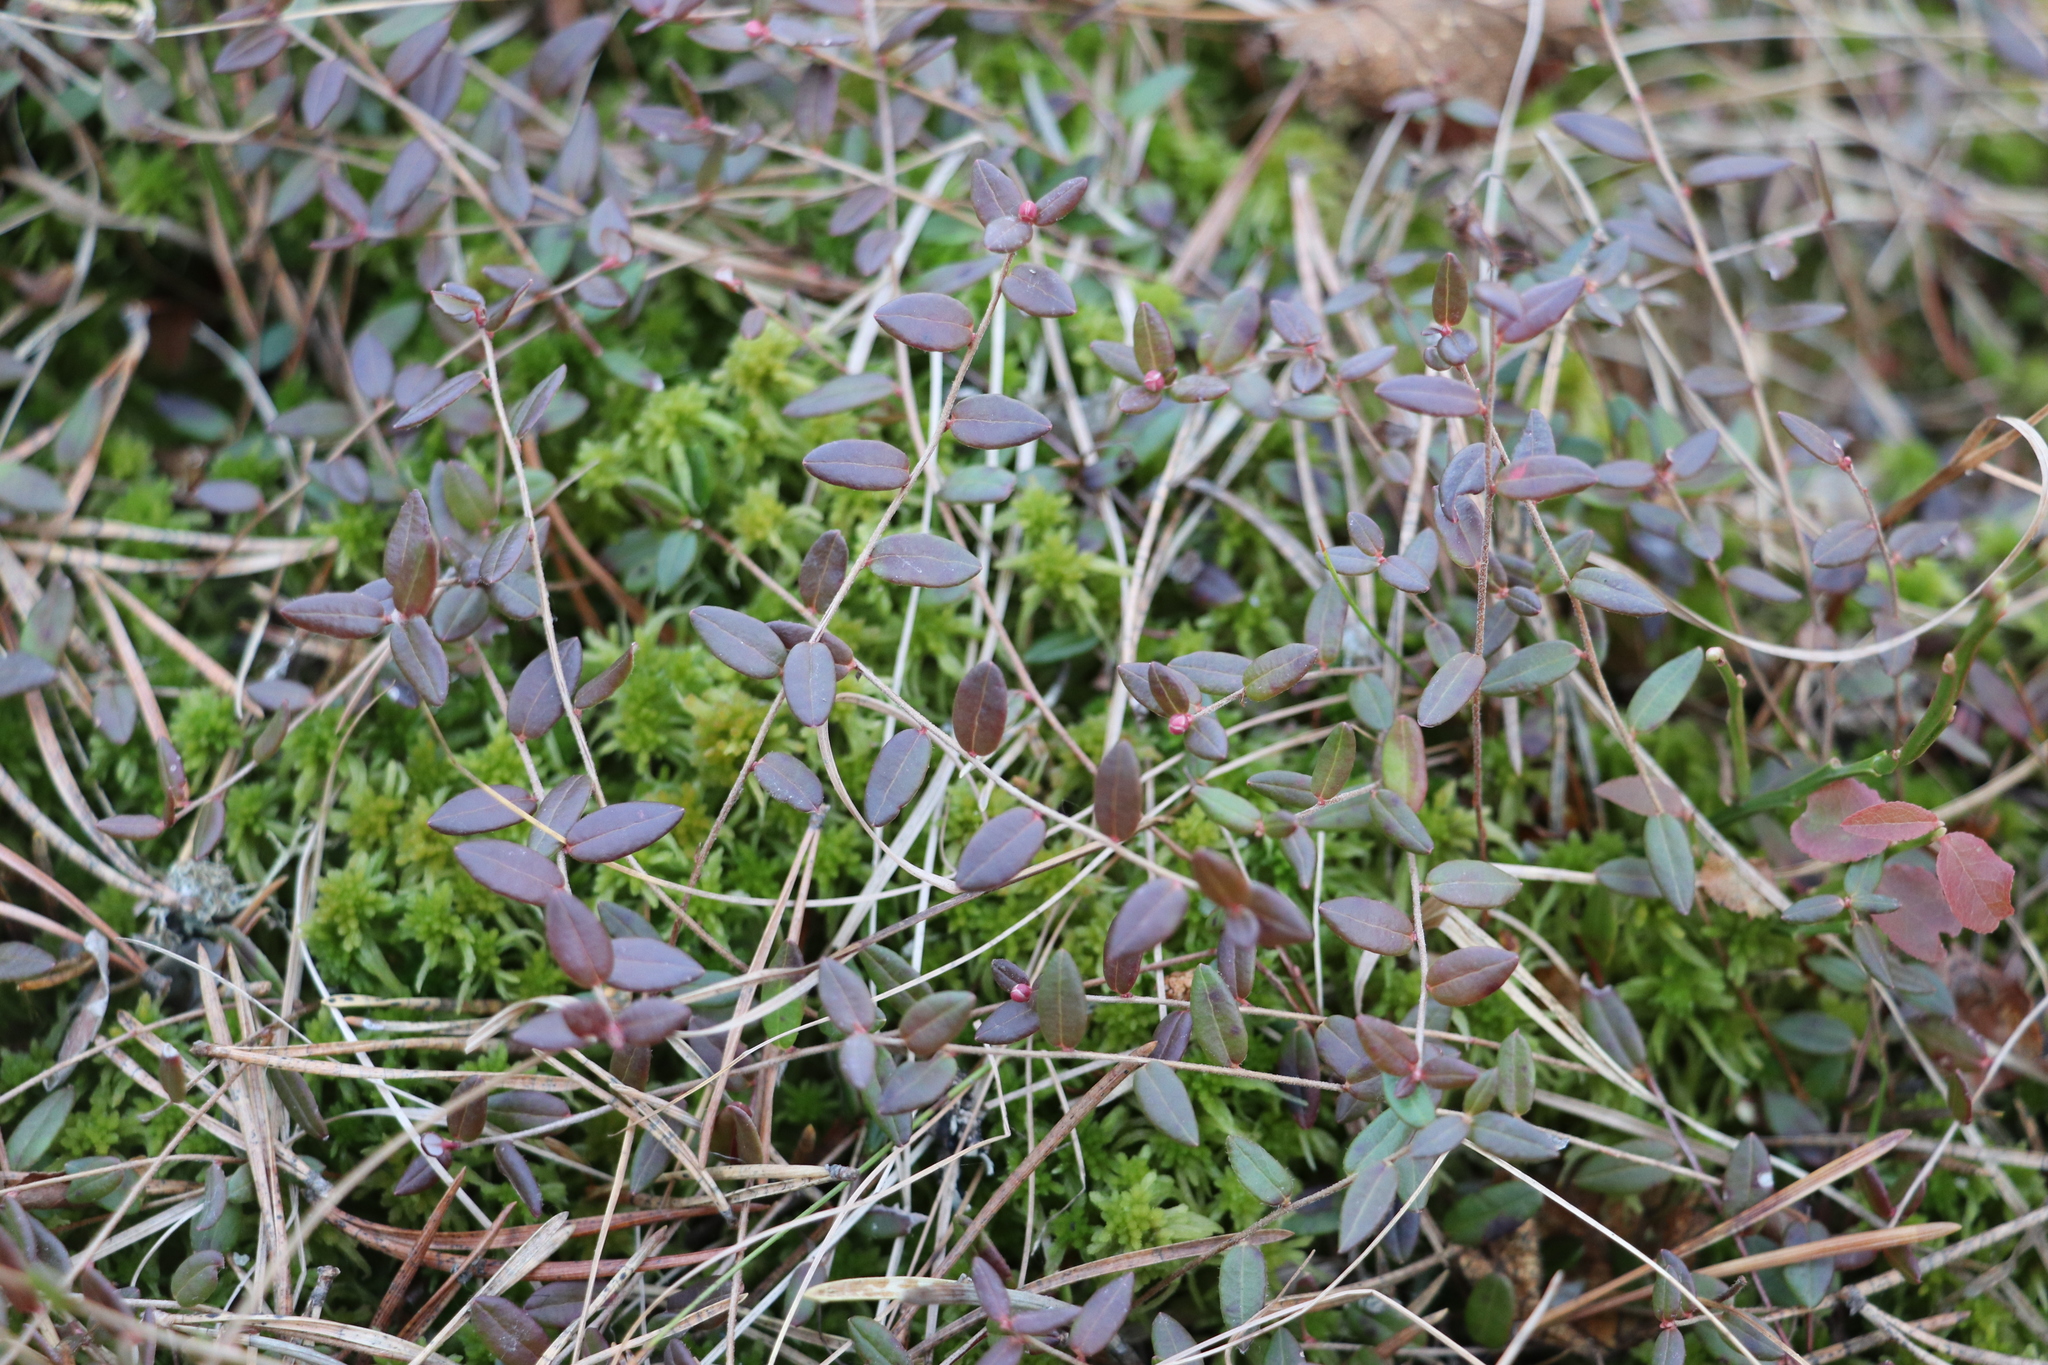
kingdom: Plantae
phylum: Tracheophyta
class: Magnoliopsida
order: Ericales
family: Ericaceae
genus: Vaccinium
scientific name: Vaccinium microcarpum
